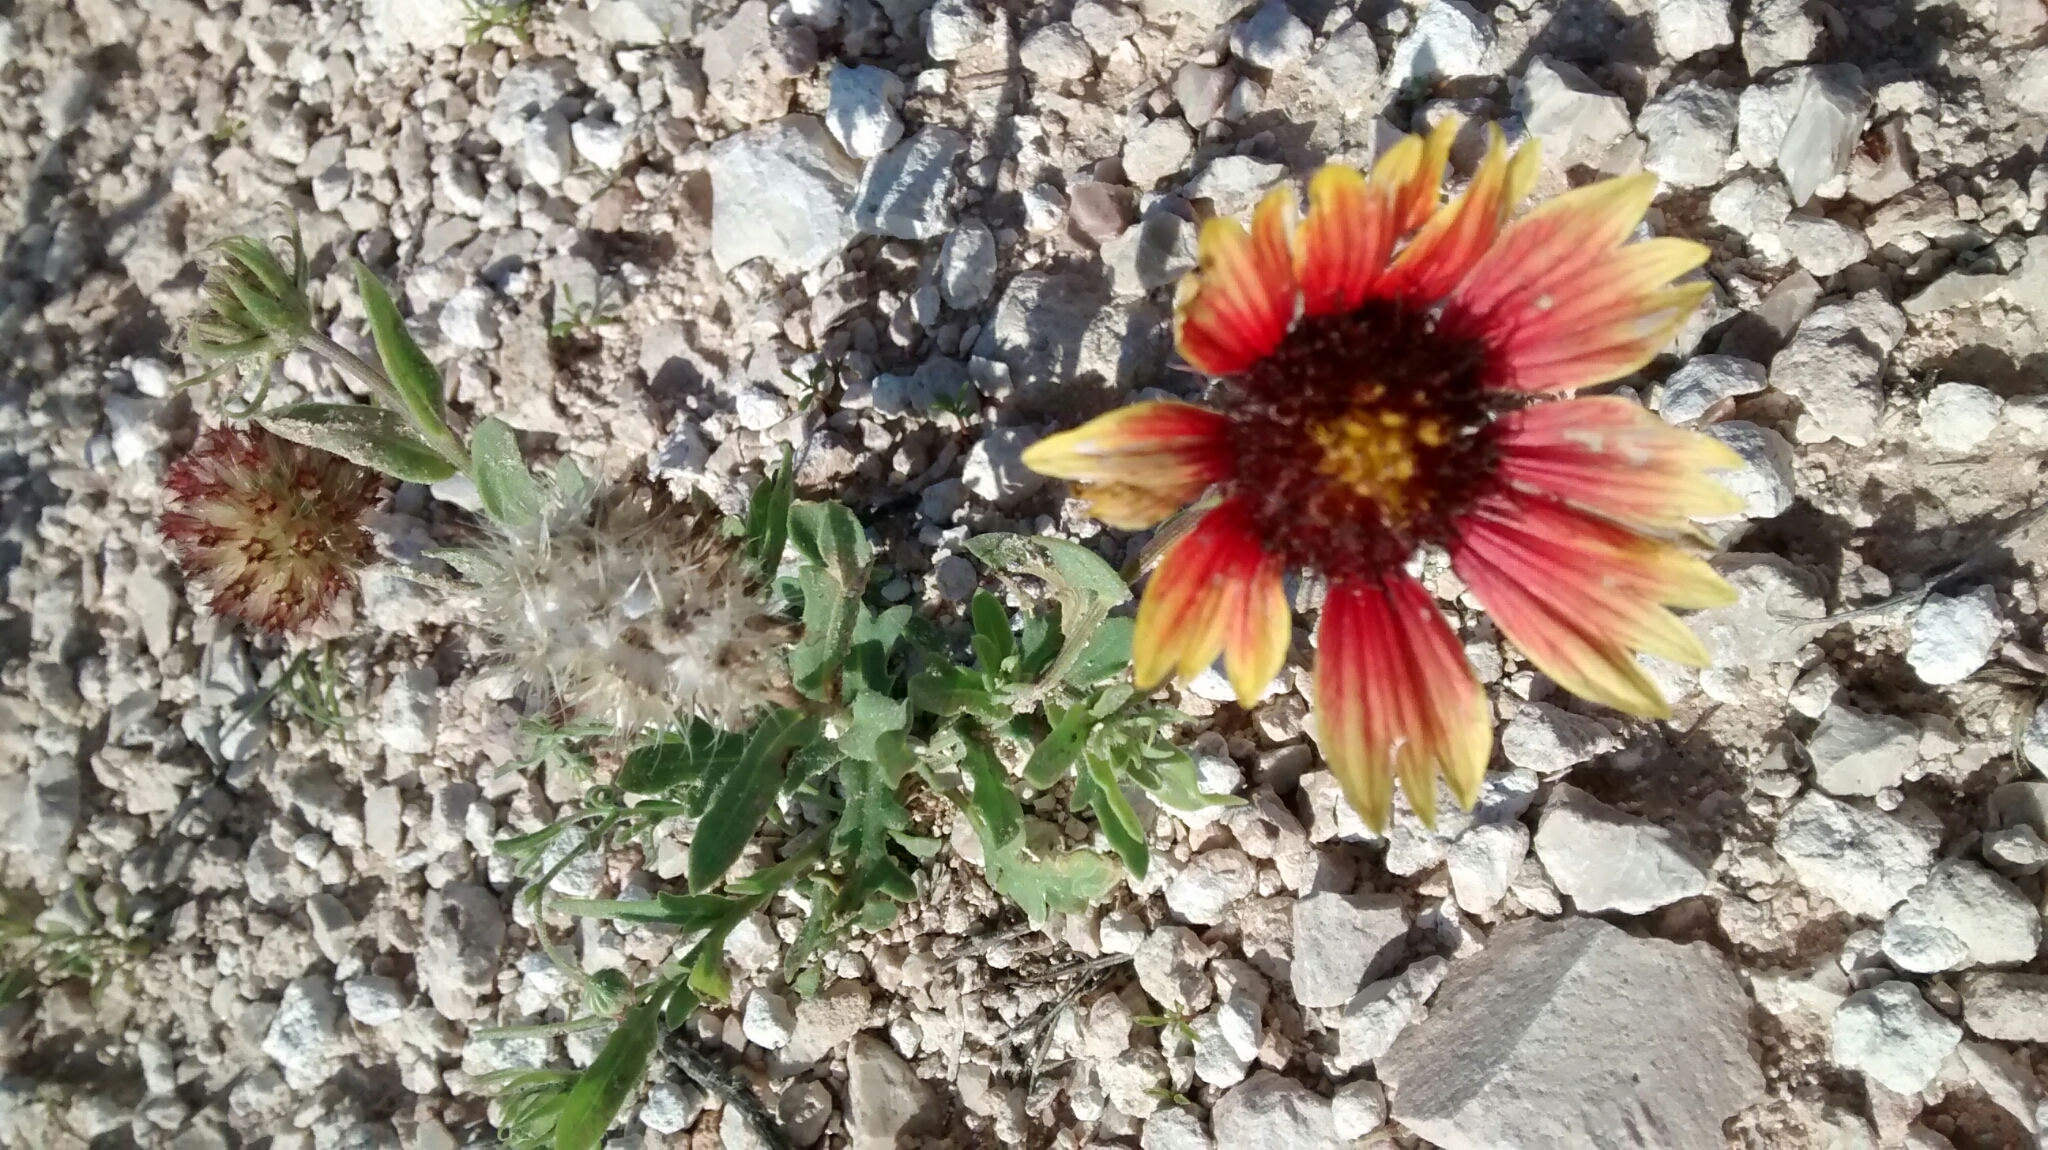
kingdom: Plantae
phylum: Tracheophyta
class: Magnoliopsida
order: Asterales
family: Asteraceae
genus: Gaillardia
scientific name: Gaillardia pulchella
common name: Firewheel
